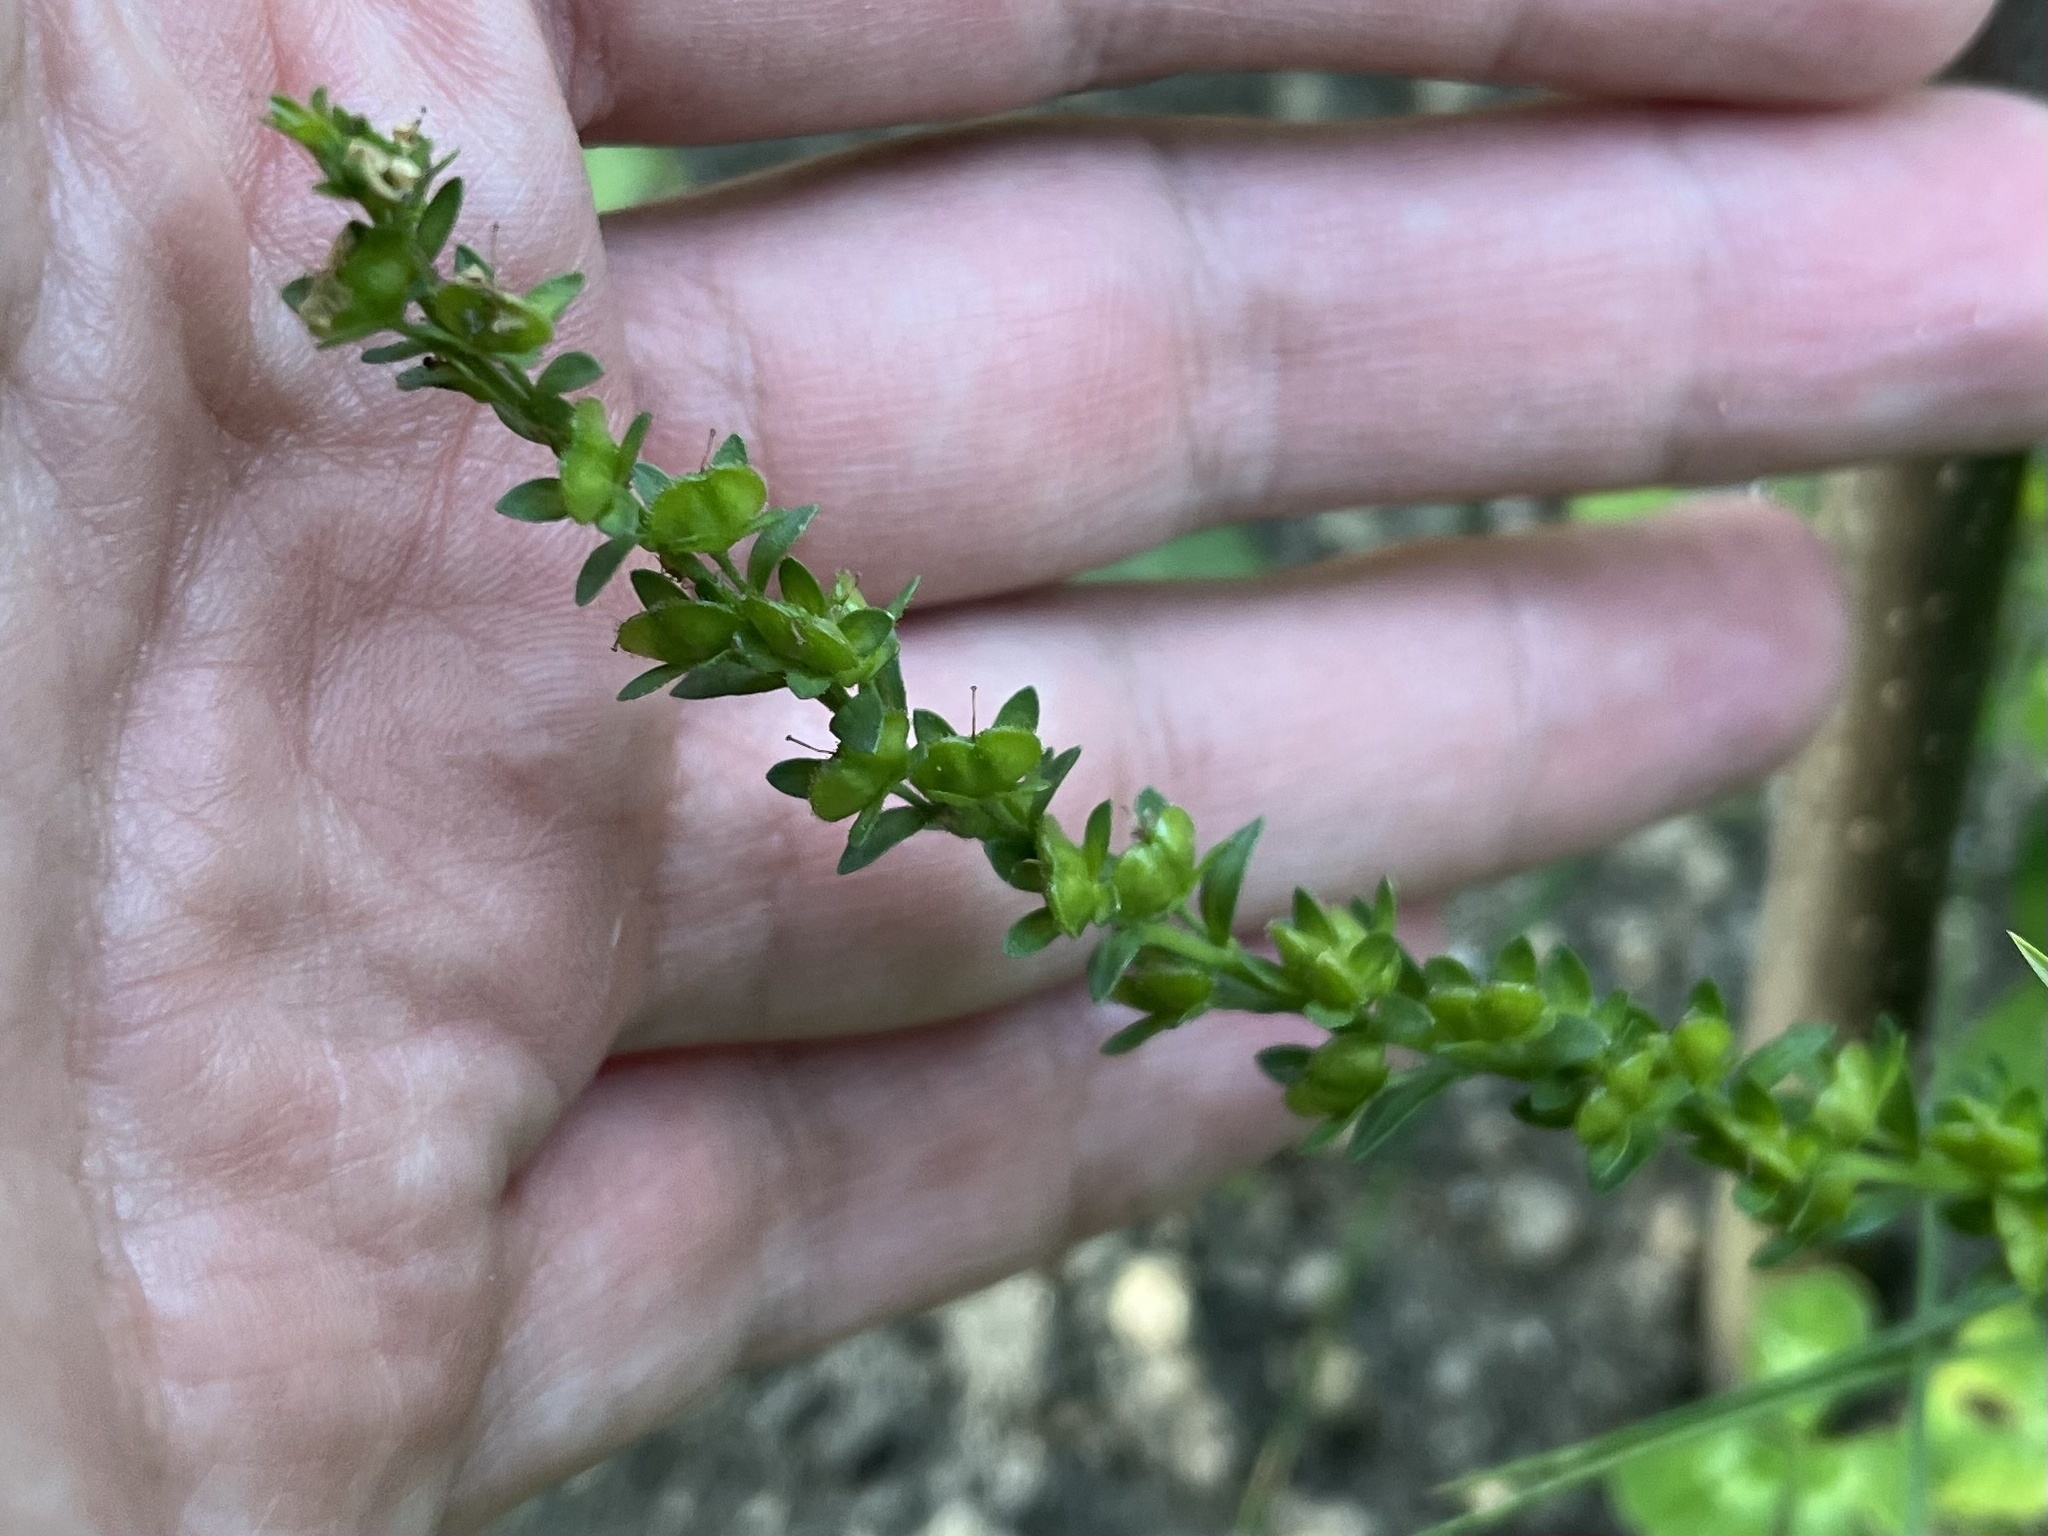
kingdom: Plantae
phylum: Tracheophyta
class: Magnoliopsida
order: Lamiales
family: Plantaginaceae
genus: Veronica
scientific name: Veronica serpyllifolia
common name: Thyme-leaved speedwell
